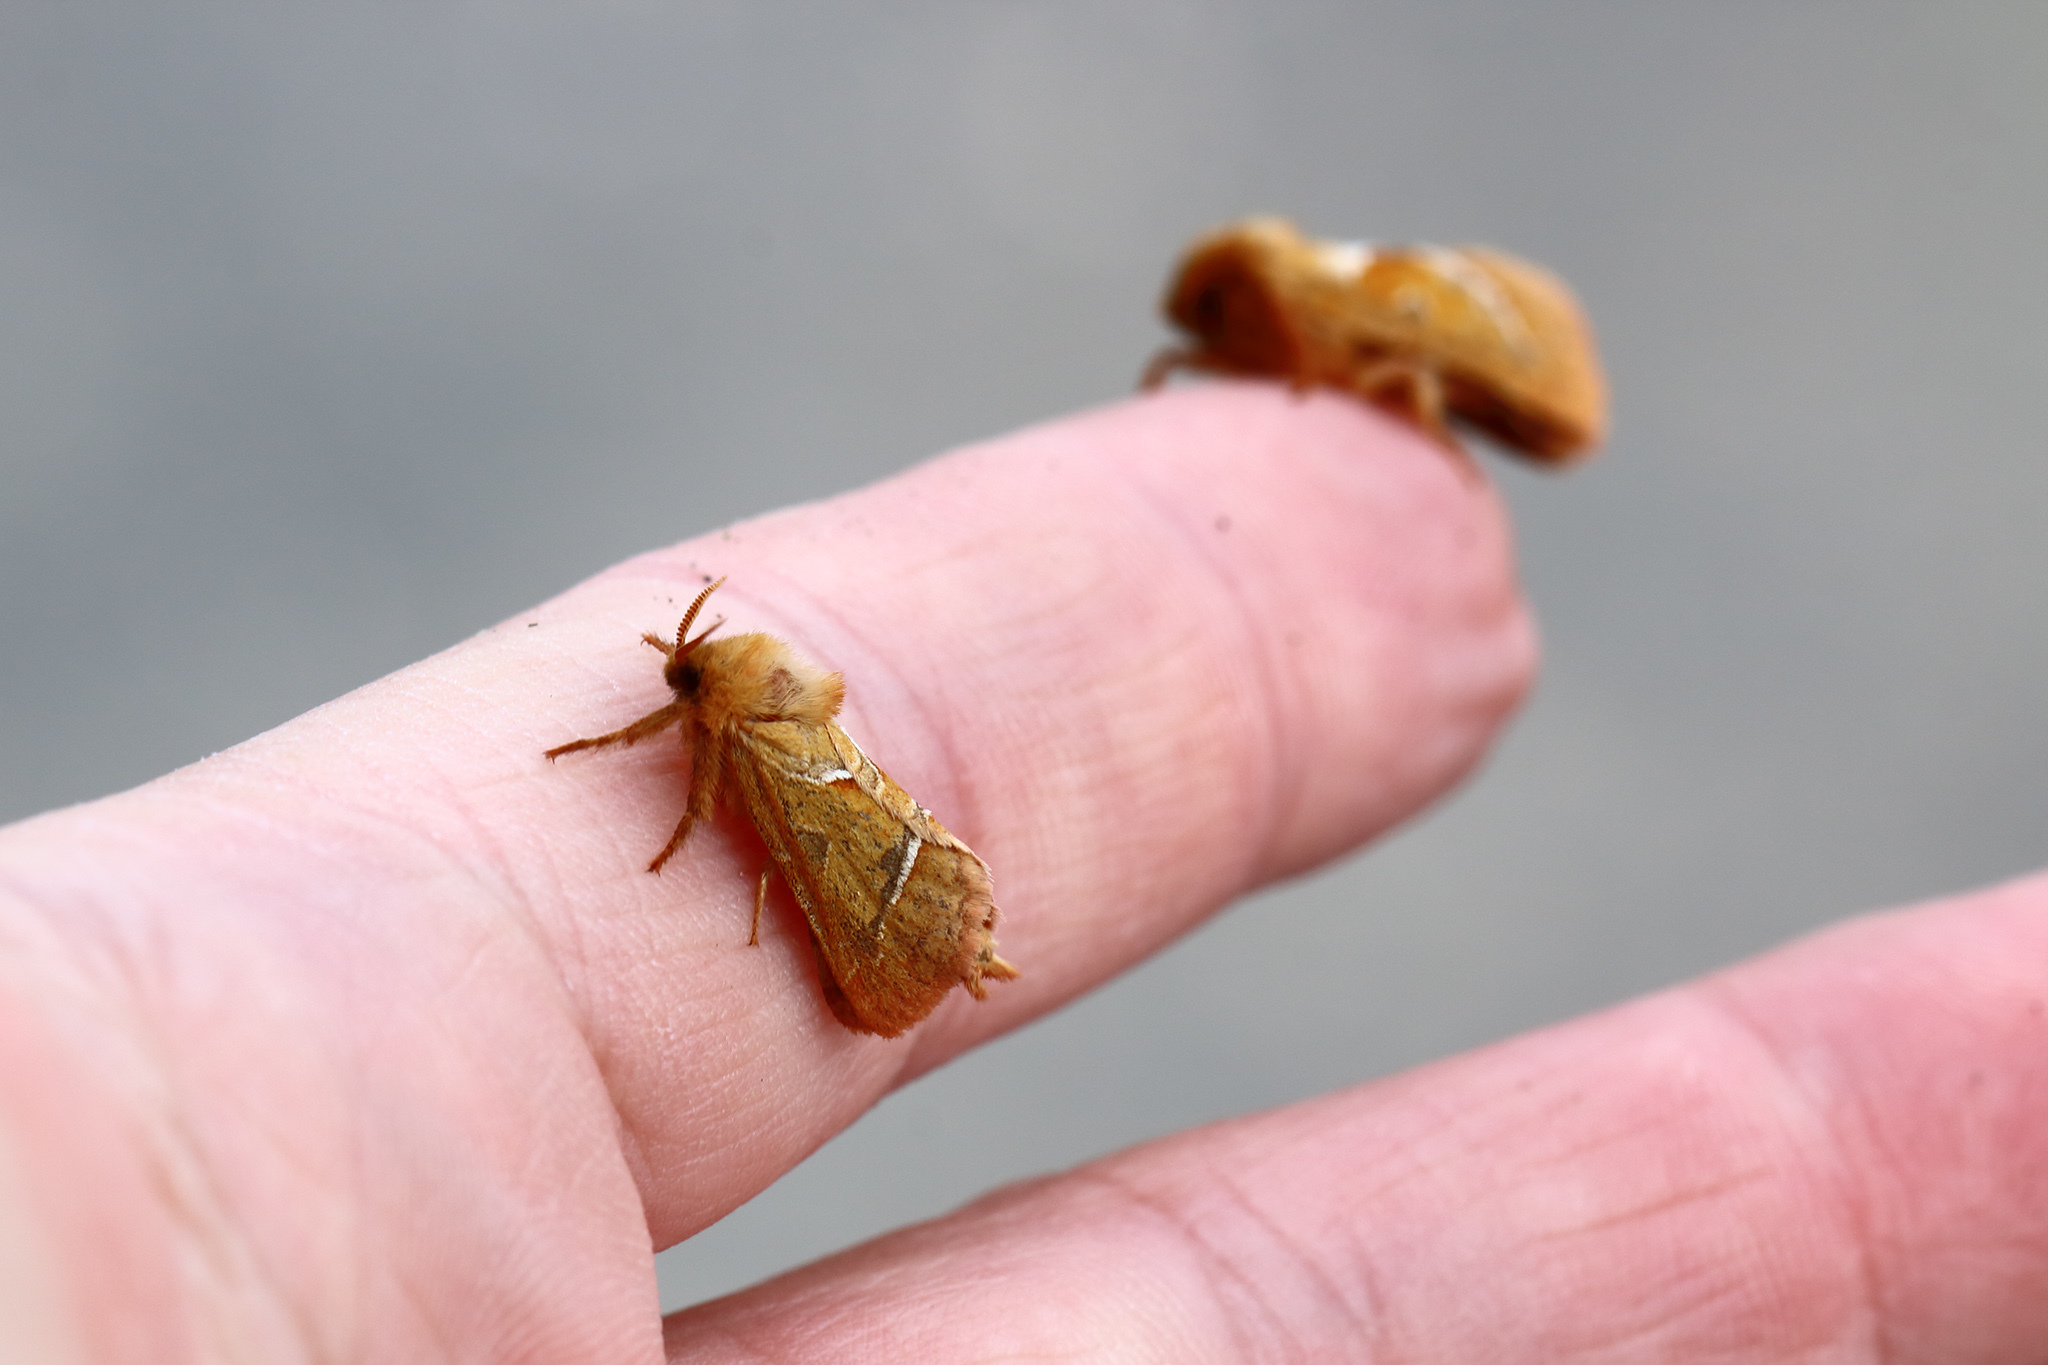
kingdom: Animalia
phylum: Arthropoda
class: Insecta
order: Lepidoptera
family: Hepialidae
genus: Triodia
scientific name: Triodia sylvina
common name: Orange swift
